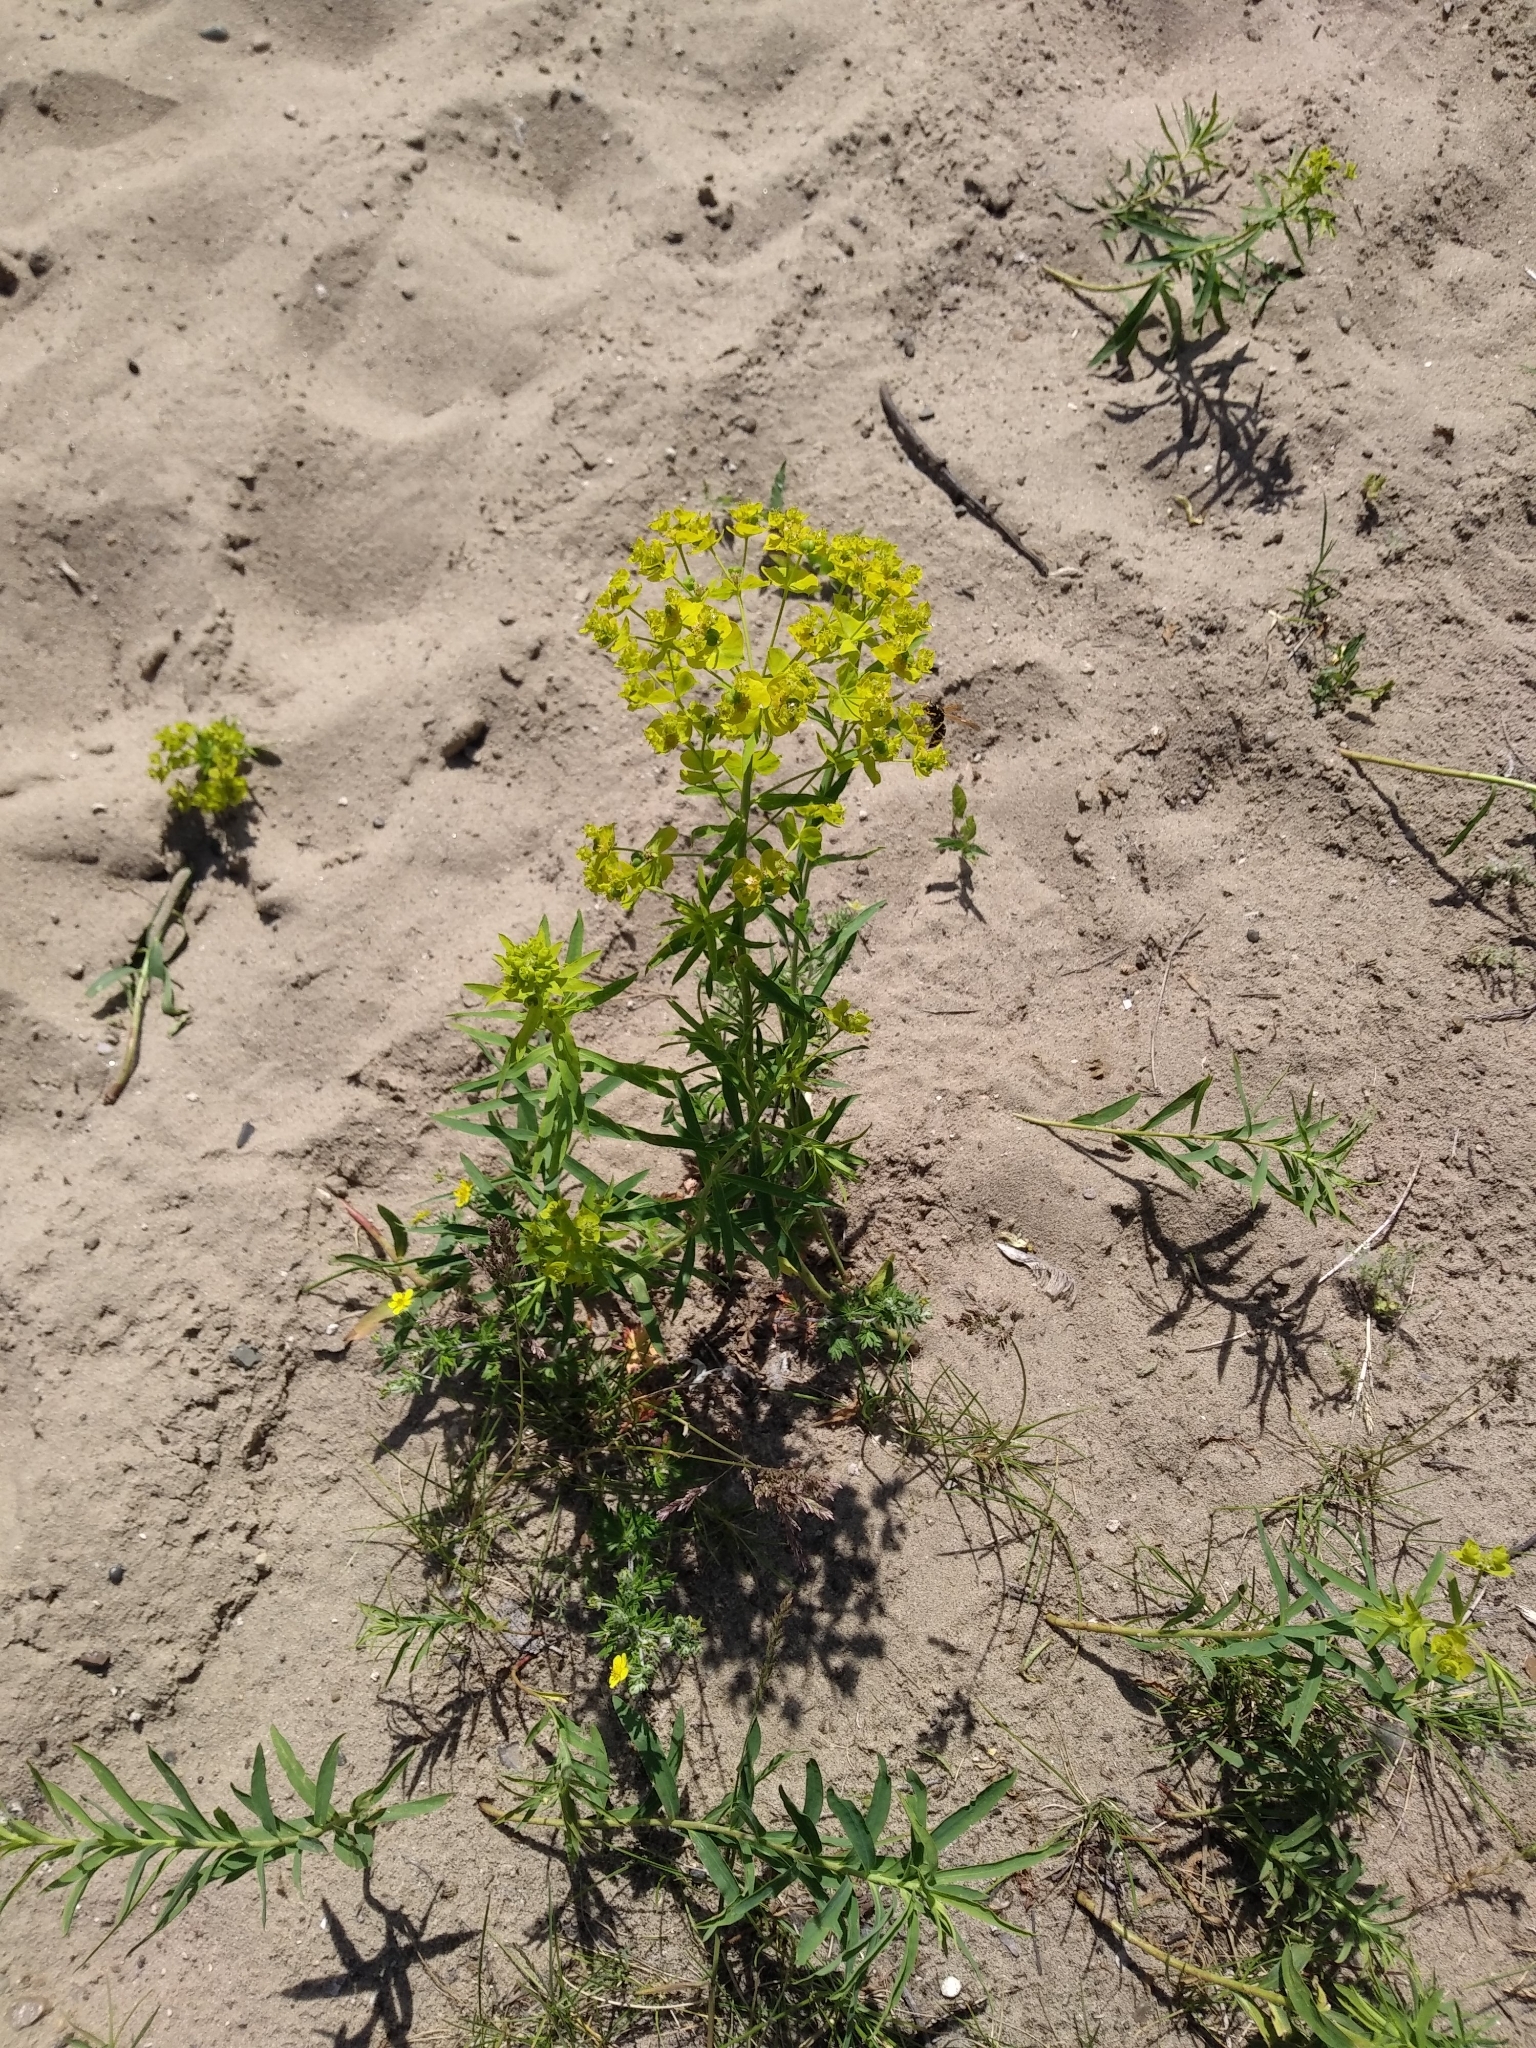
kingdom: Plantae
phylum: Tracheophyta
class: Magnoliopsida
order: Malpighiales
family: Euphorbiaceae
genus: Euphorbia
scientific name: Euphorbia virgata
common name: Leafy spurge
